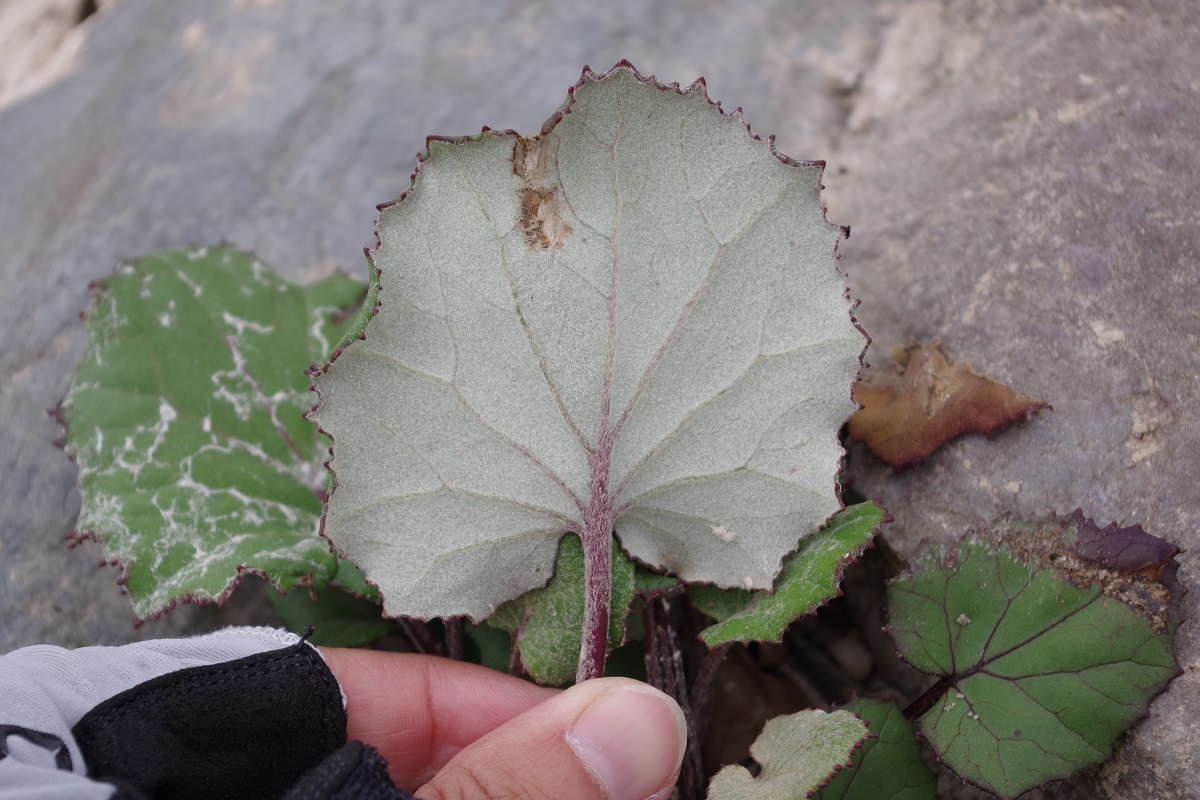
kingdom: Plantae
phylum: Tracheophyta
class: Magnoliopsida
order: Asterales
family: Asteraceae
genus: Tussilago
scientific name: Tussilago farfara
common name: Coltsfoot
